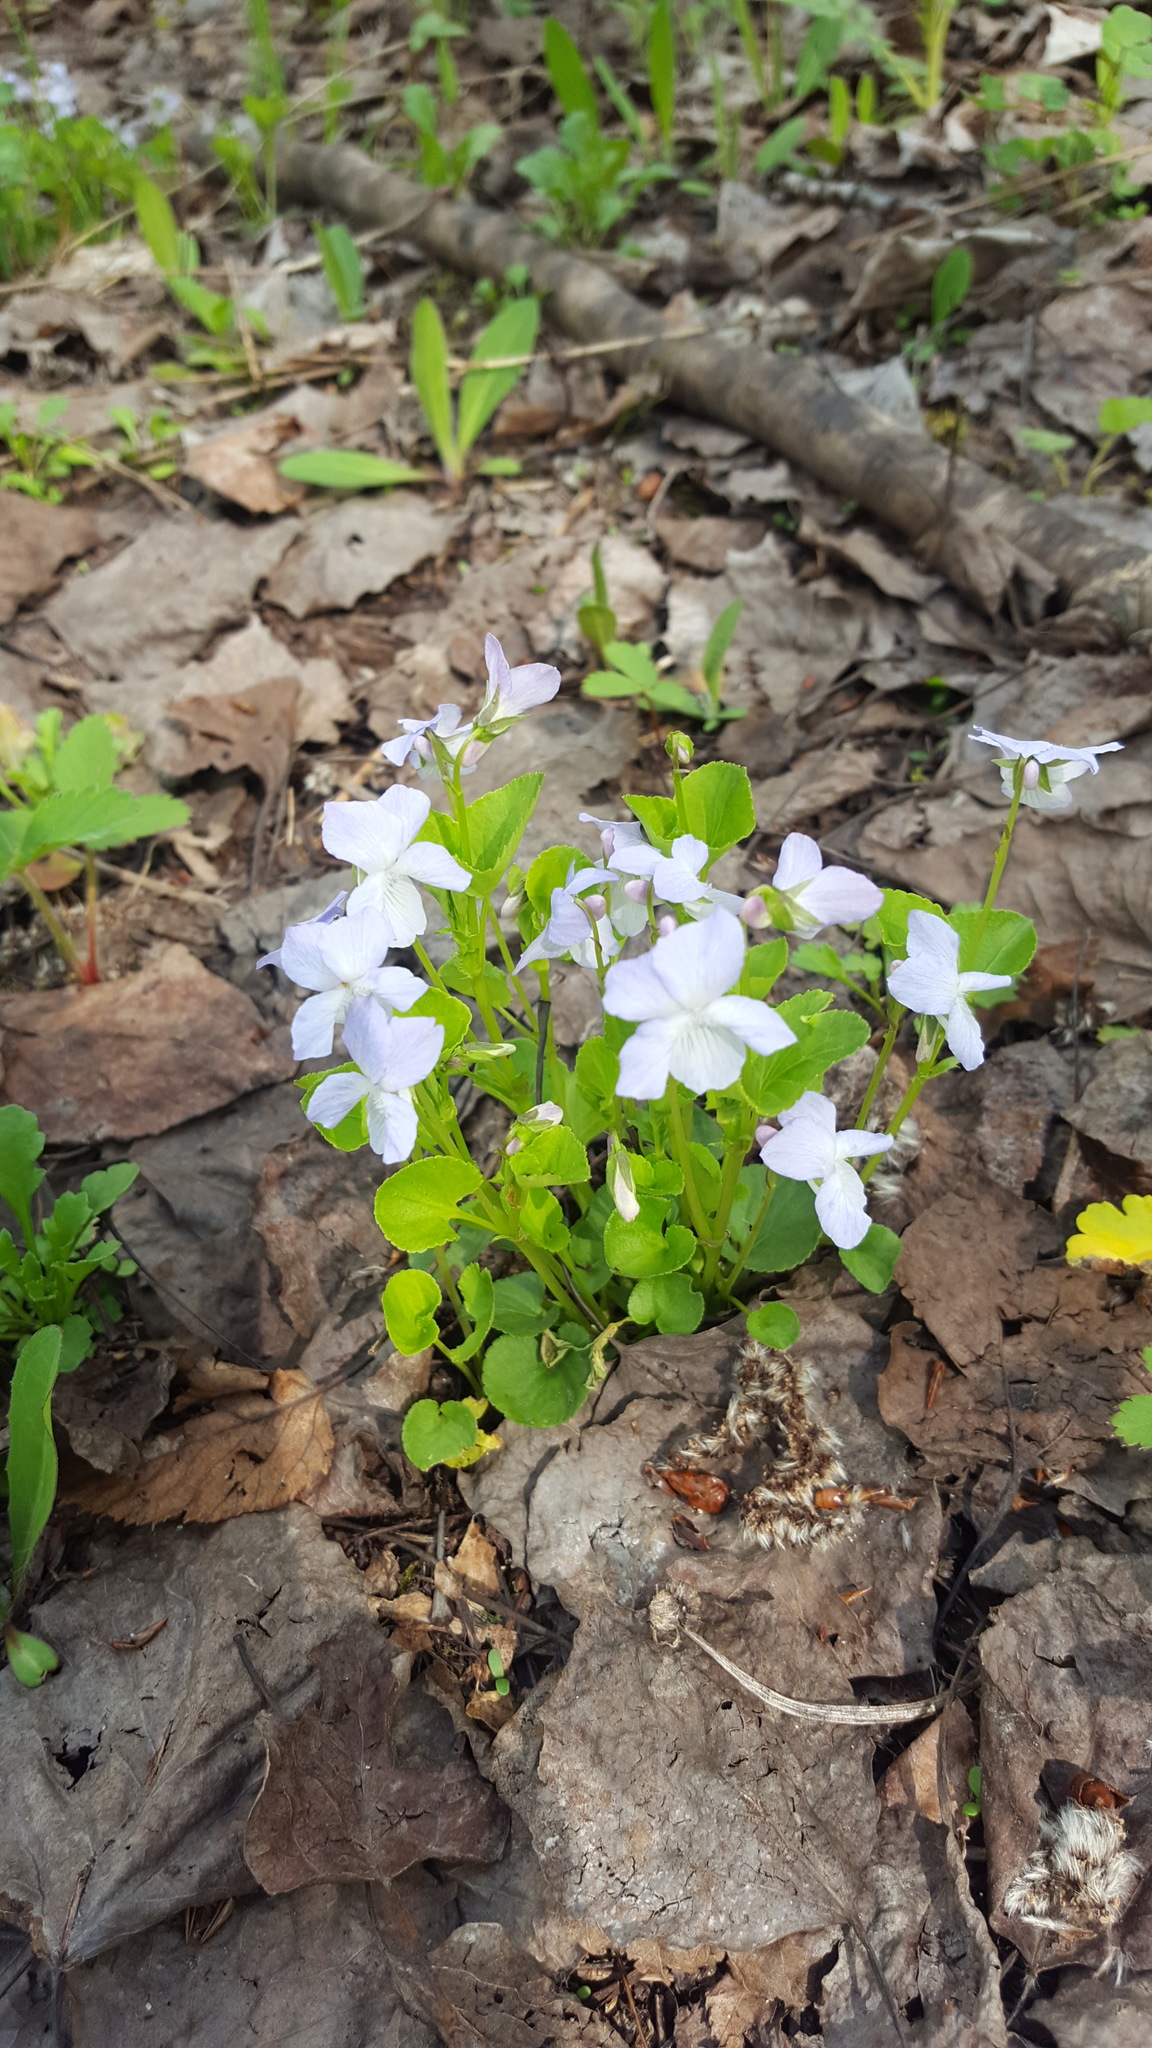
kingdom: Plantae
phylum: Tracheophyta
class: Magnoliopsida
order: Malpighiales
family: Violaceae
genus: Viola
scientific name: Viola labradorica
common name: Labrador violet
